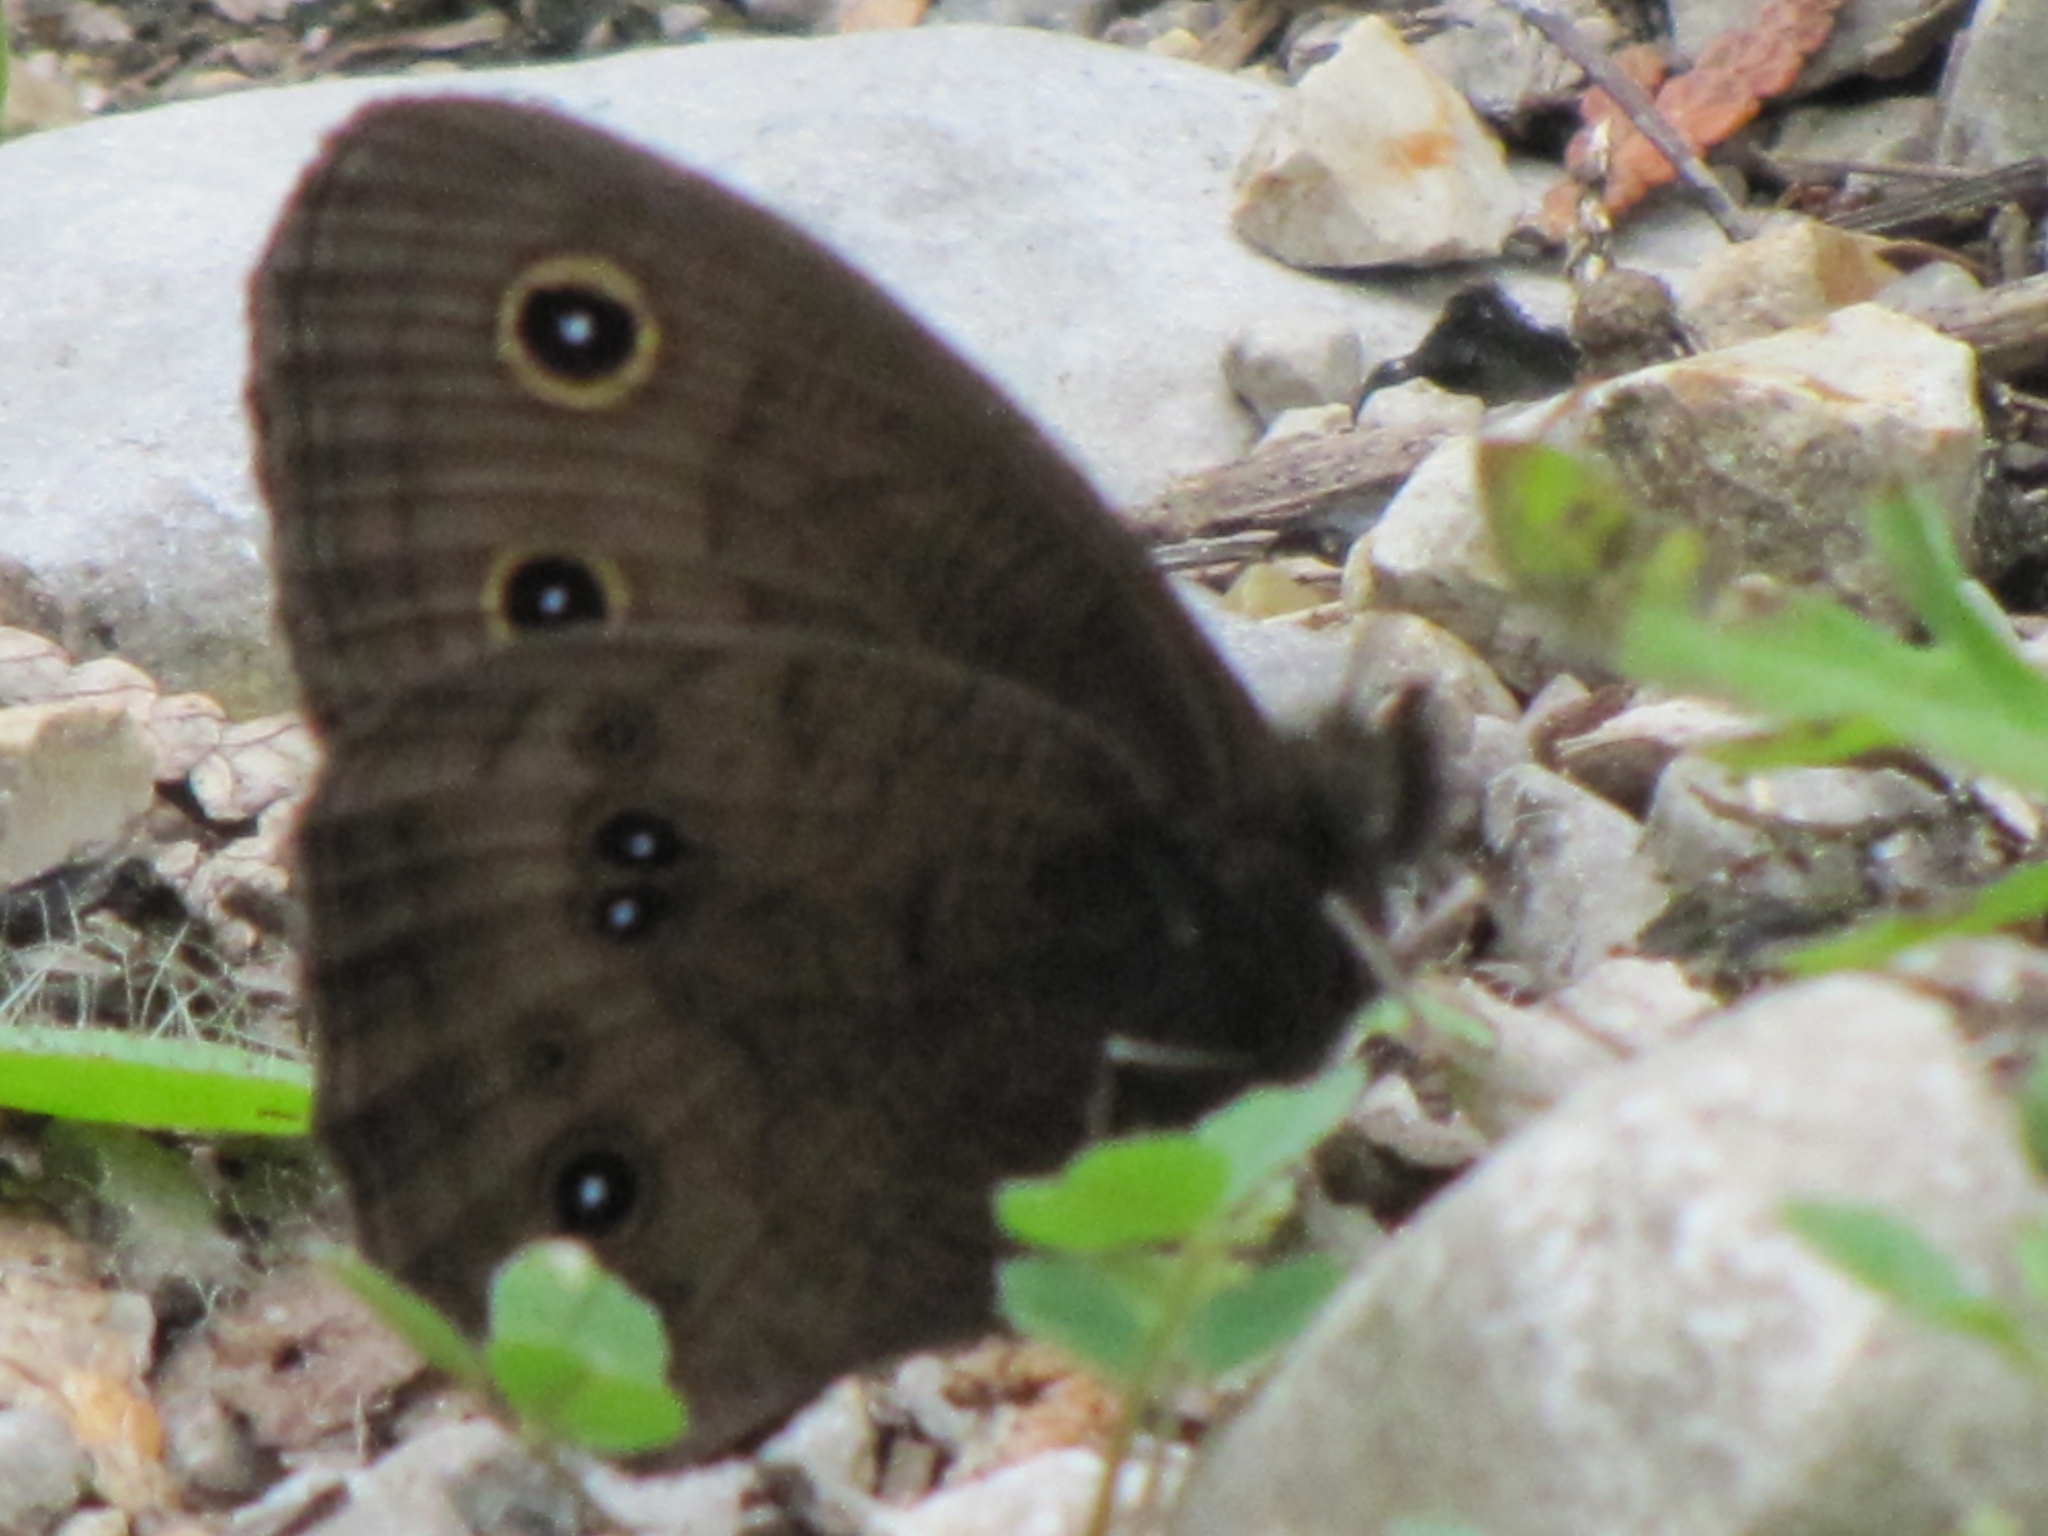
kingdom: Animalia
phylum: Arthropoda
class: Insecta
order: Lepidoptera
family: Nymphalidae
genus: Cercyonis
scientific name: Cercyonis pegala
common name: Common wood-nymph
